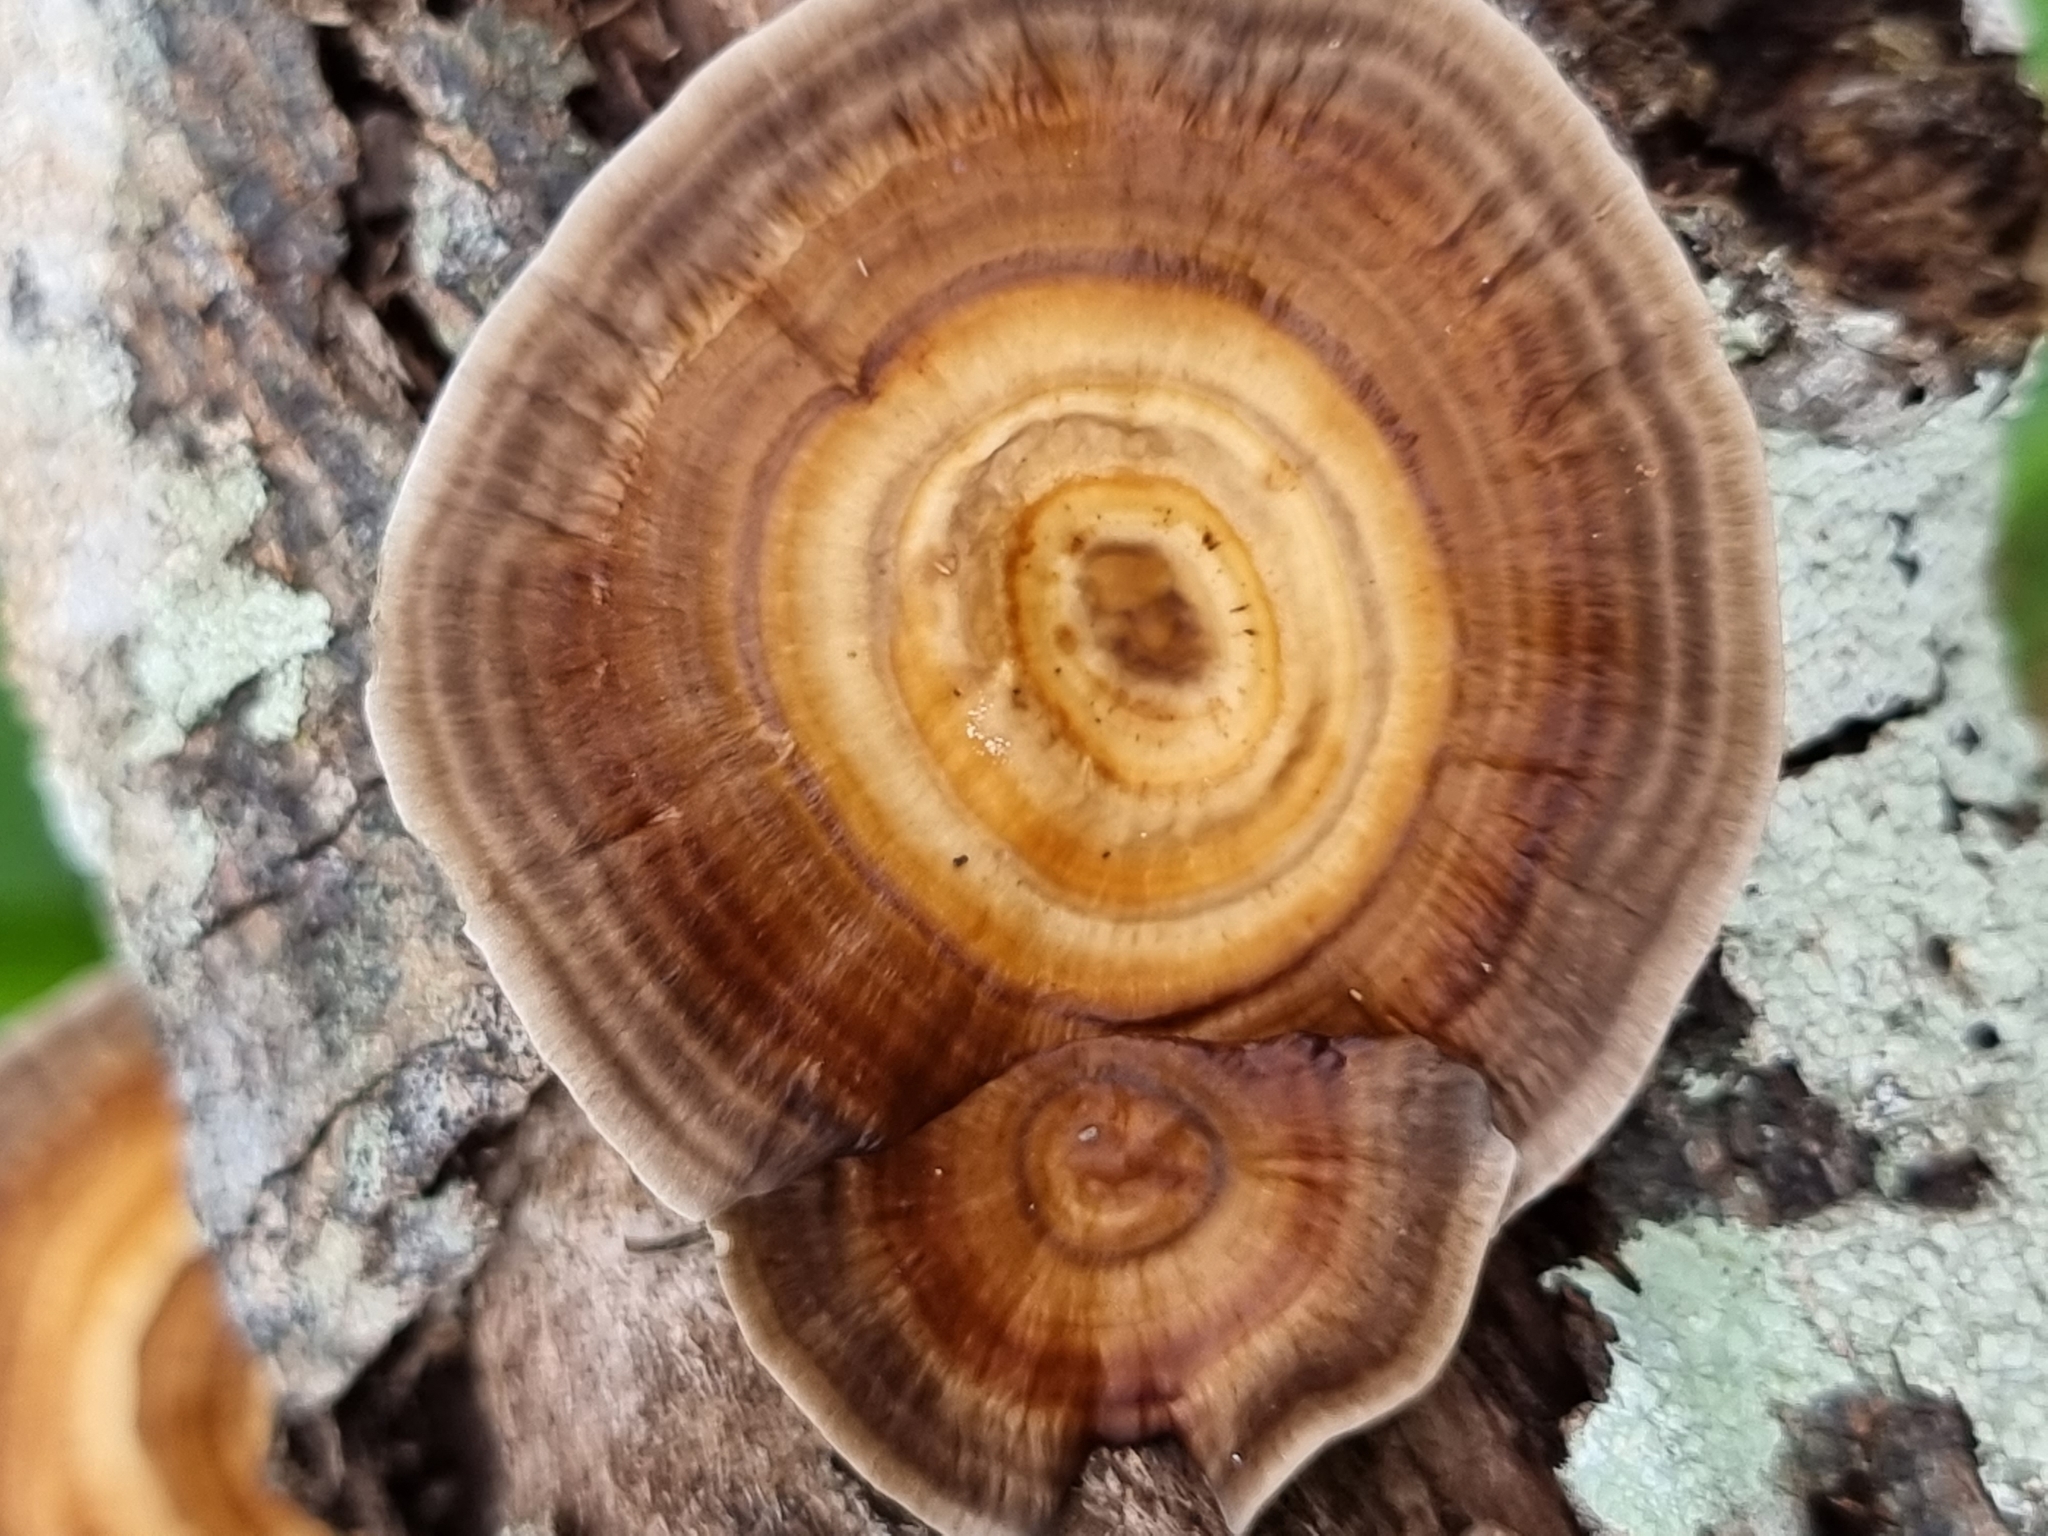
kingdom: Fungi
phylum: Basidiomycota
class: Agaricomycetes
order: Polyporales
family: Polyporaceae
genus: Microporus
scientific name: Microporus xanthopus
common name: Yellow-stemmed micropore
